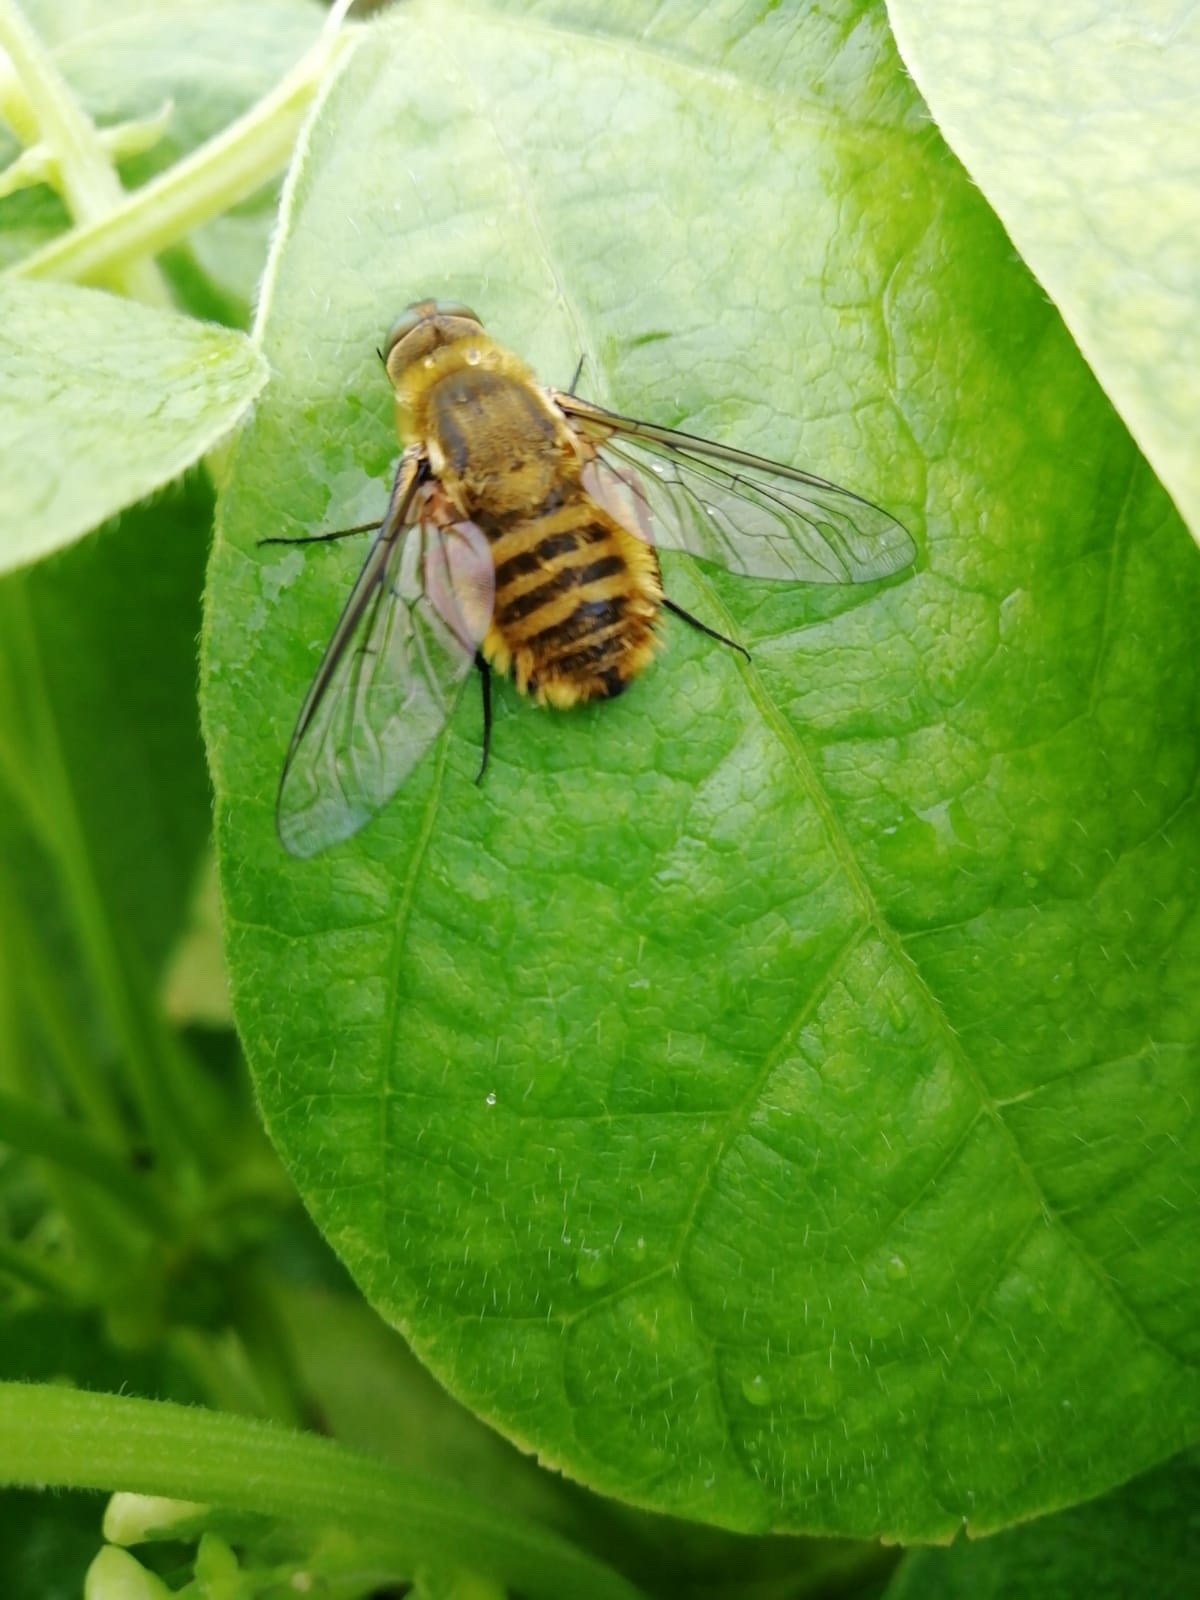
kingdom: Animalia
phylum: Arthropoda
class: Insecta
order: Diptera
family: Bombyliidae
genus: Villa
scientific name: Villa hottentotta
